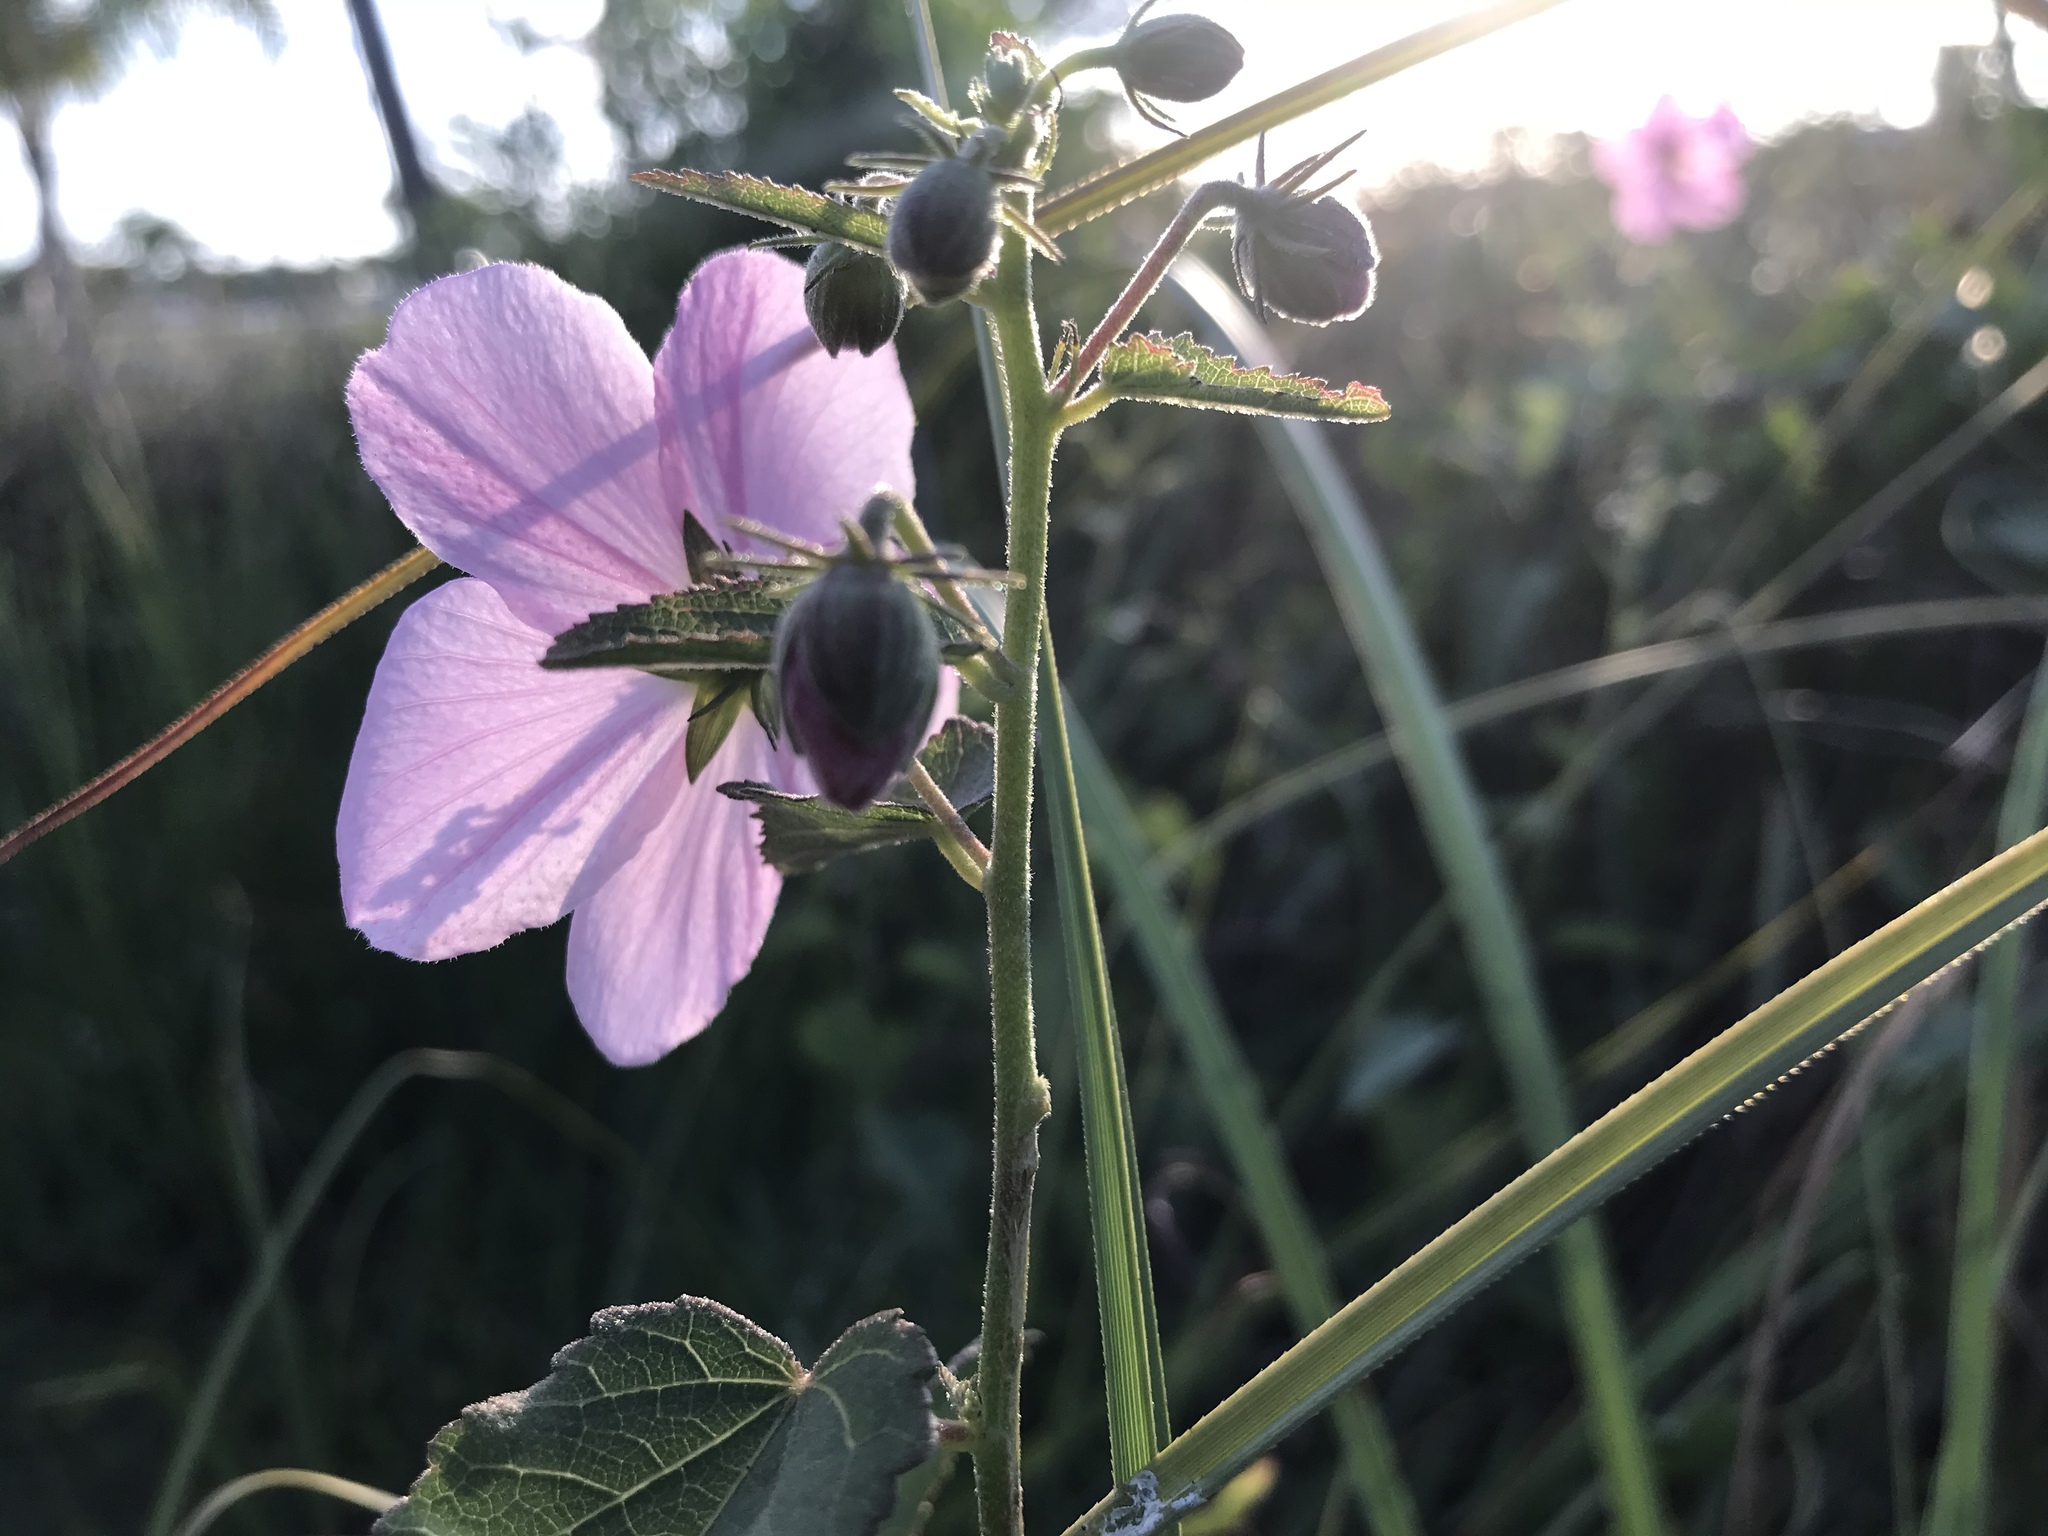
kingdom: Plantae
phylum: Tracheophyta
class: Magnoliopsida
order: Malvales
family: Malvaceae
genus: Kosteletzkya
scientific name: Kosteletzkya pentacarpos
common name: Virginia saltmarsh mallow
